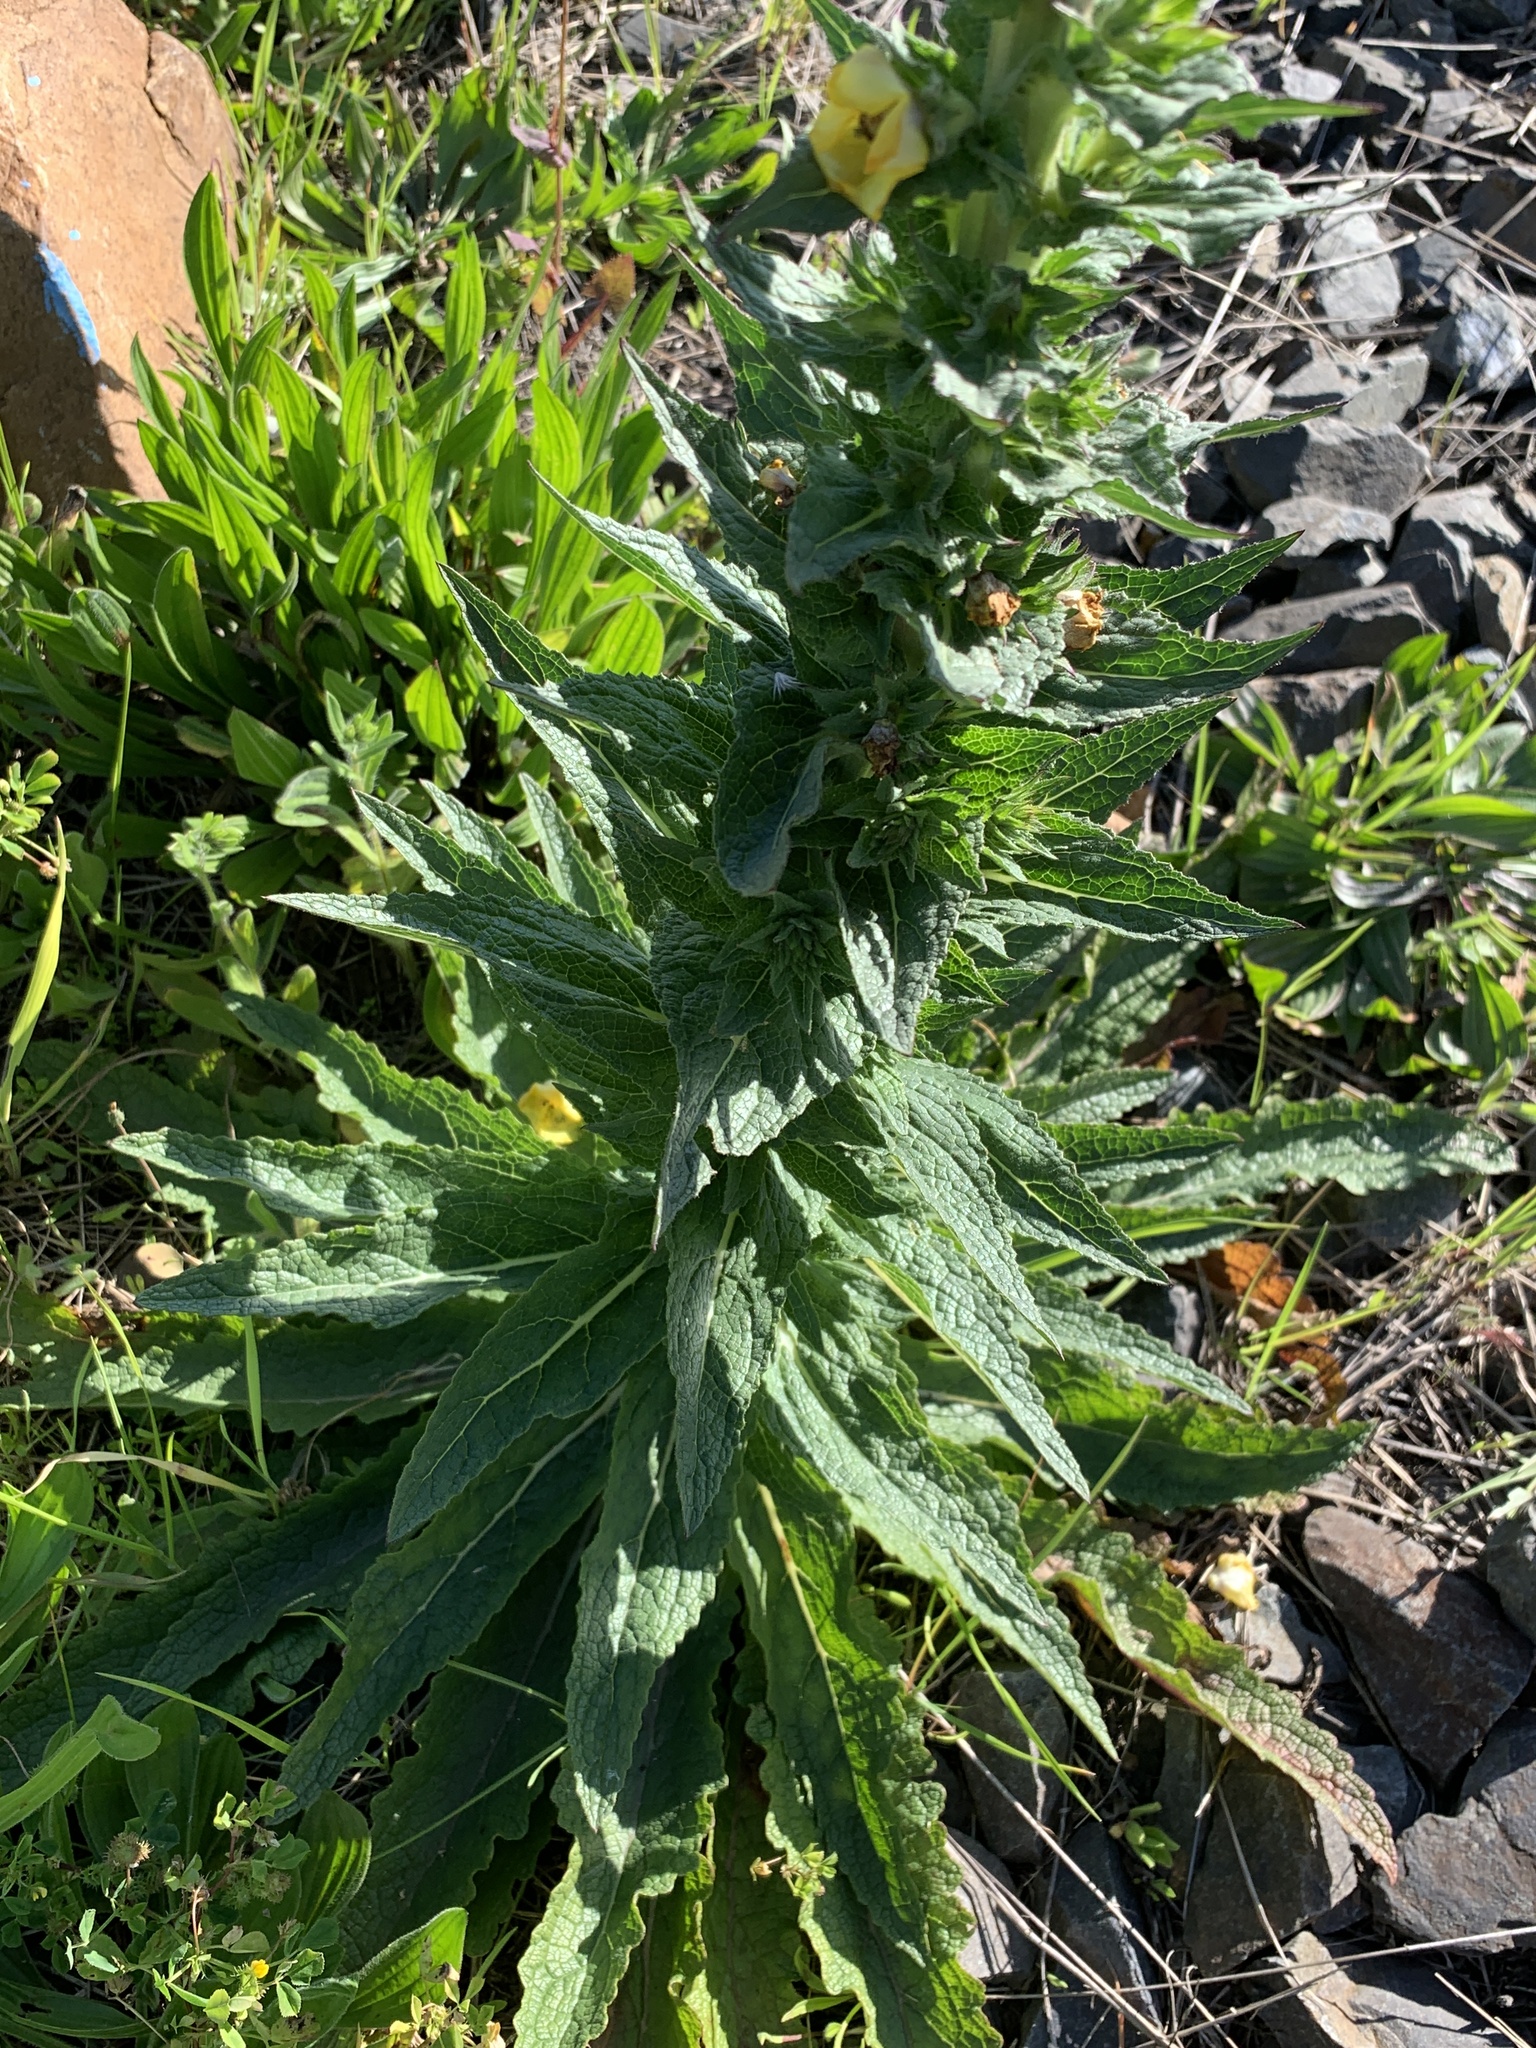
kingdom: Plantae
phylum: Tracheophyta
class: Magnoliopsida
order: Lamiales
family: Scrophulariaceae
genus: Verbascum
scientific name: Verbascum virgatum
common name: Twiggy mullein
